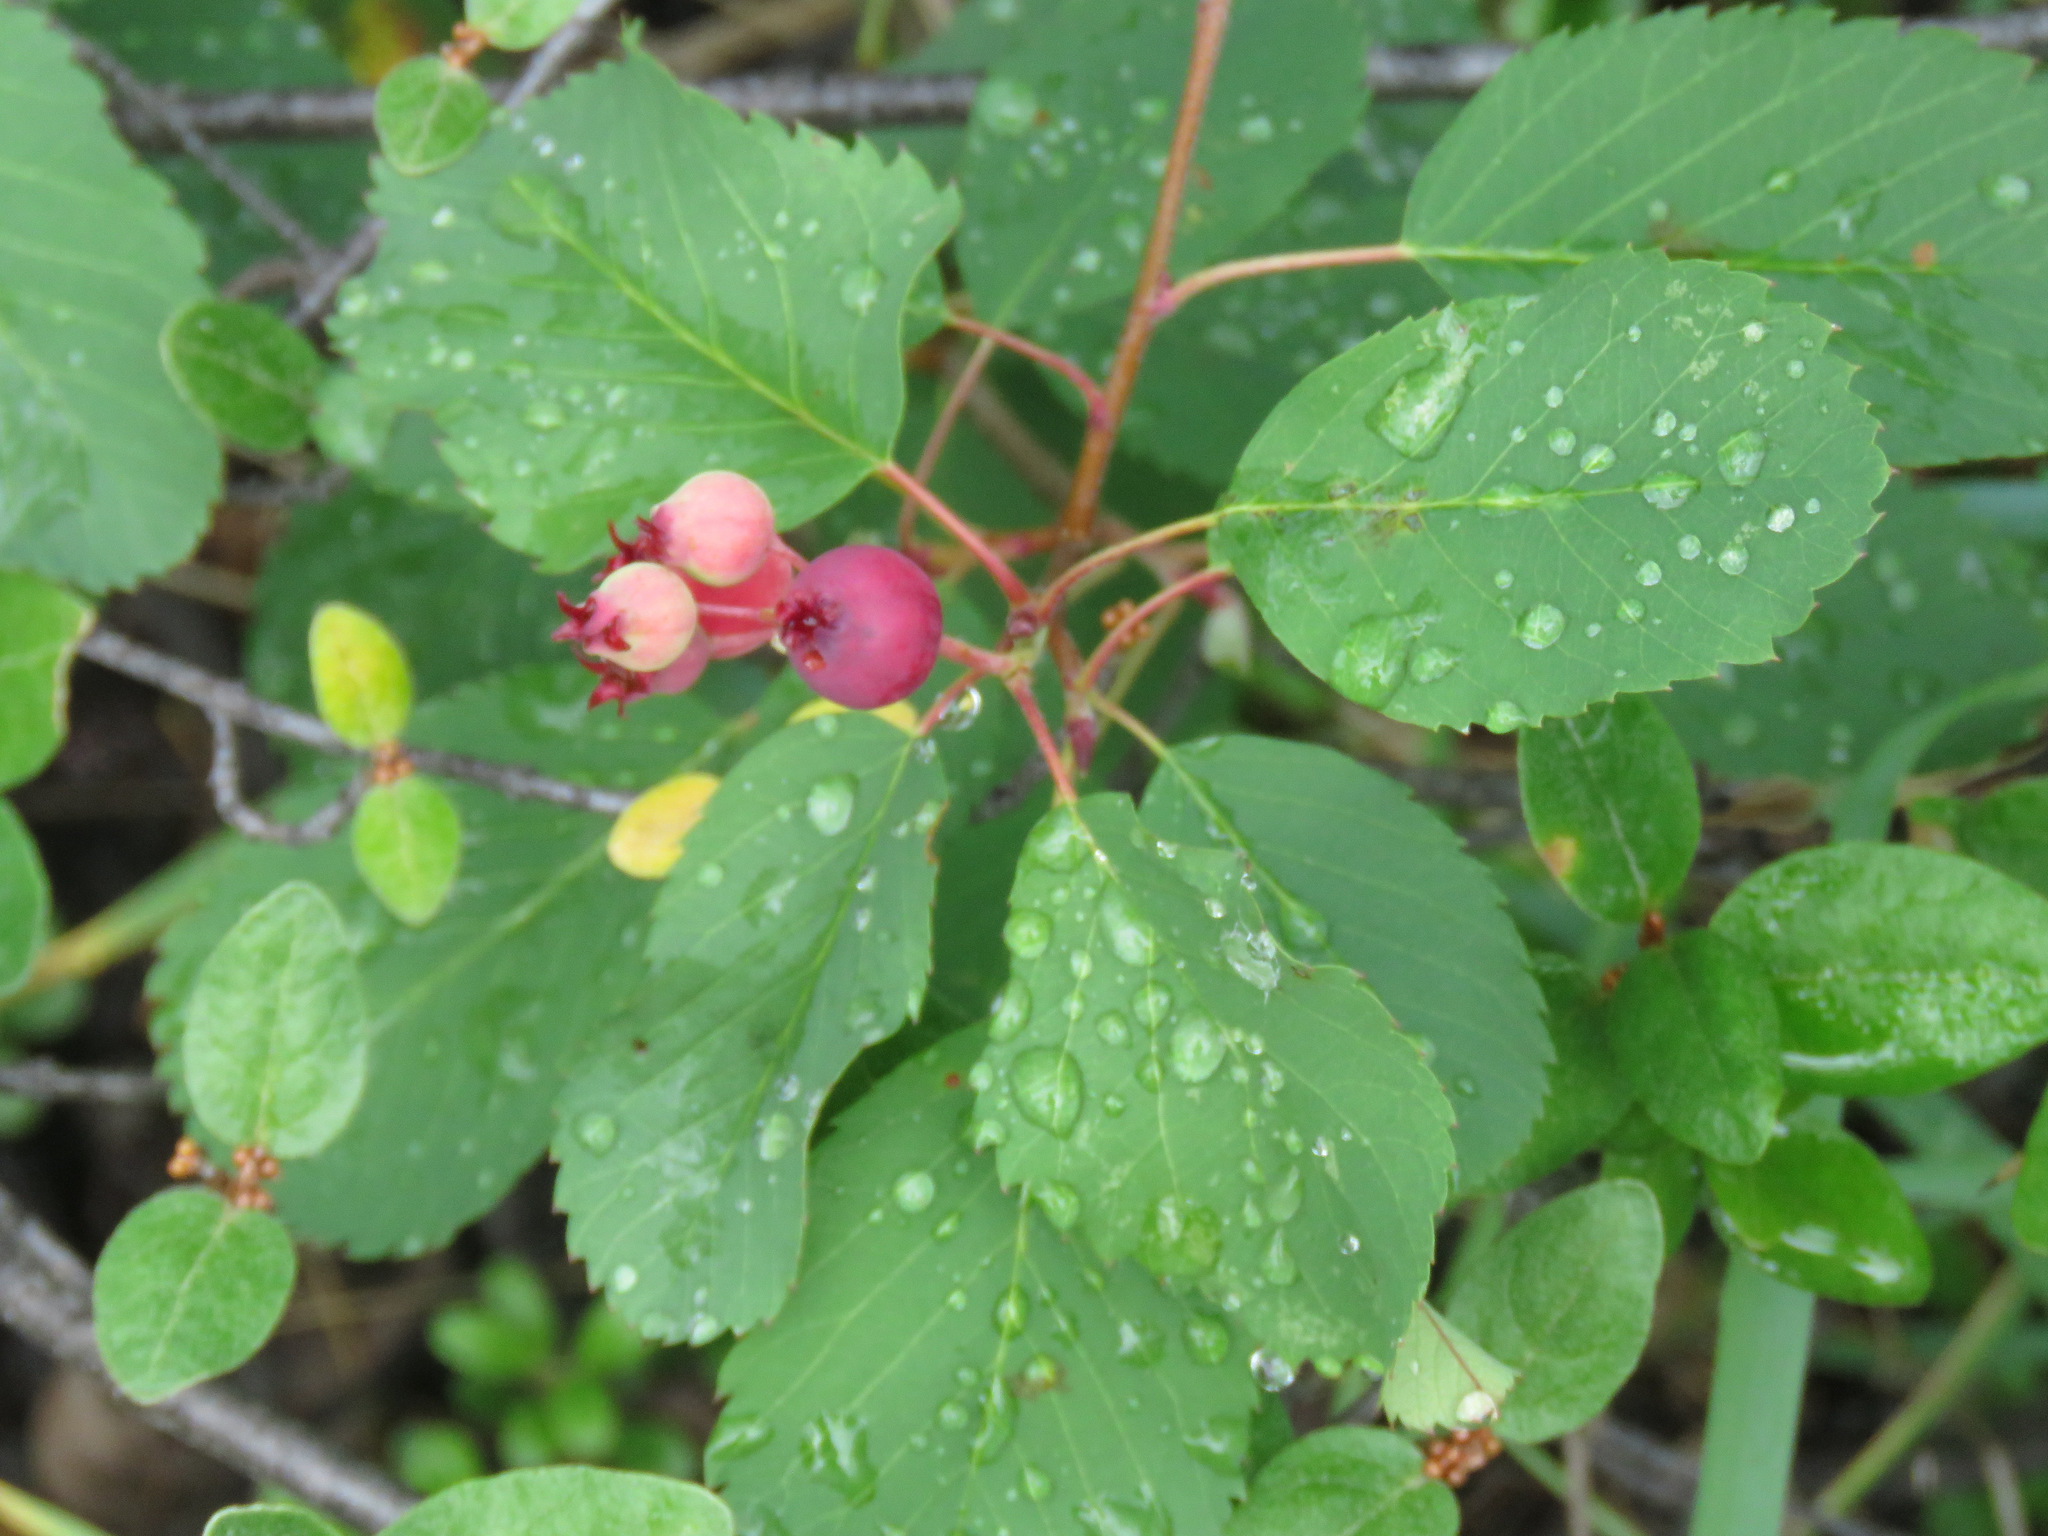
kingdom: Plantae
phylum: Tracheophyta
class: Magnoliopsida
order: Rosales
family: Rosaceae
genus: Amelanchier
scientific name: Amelanchier alnifolia
